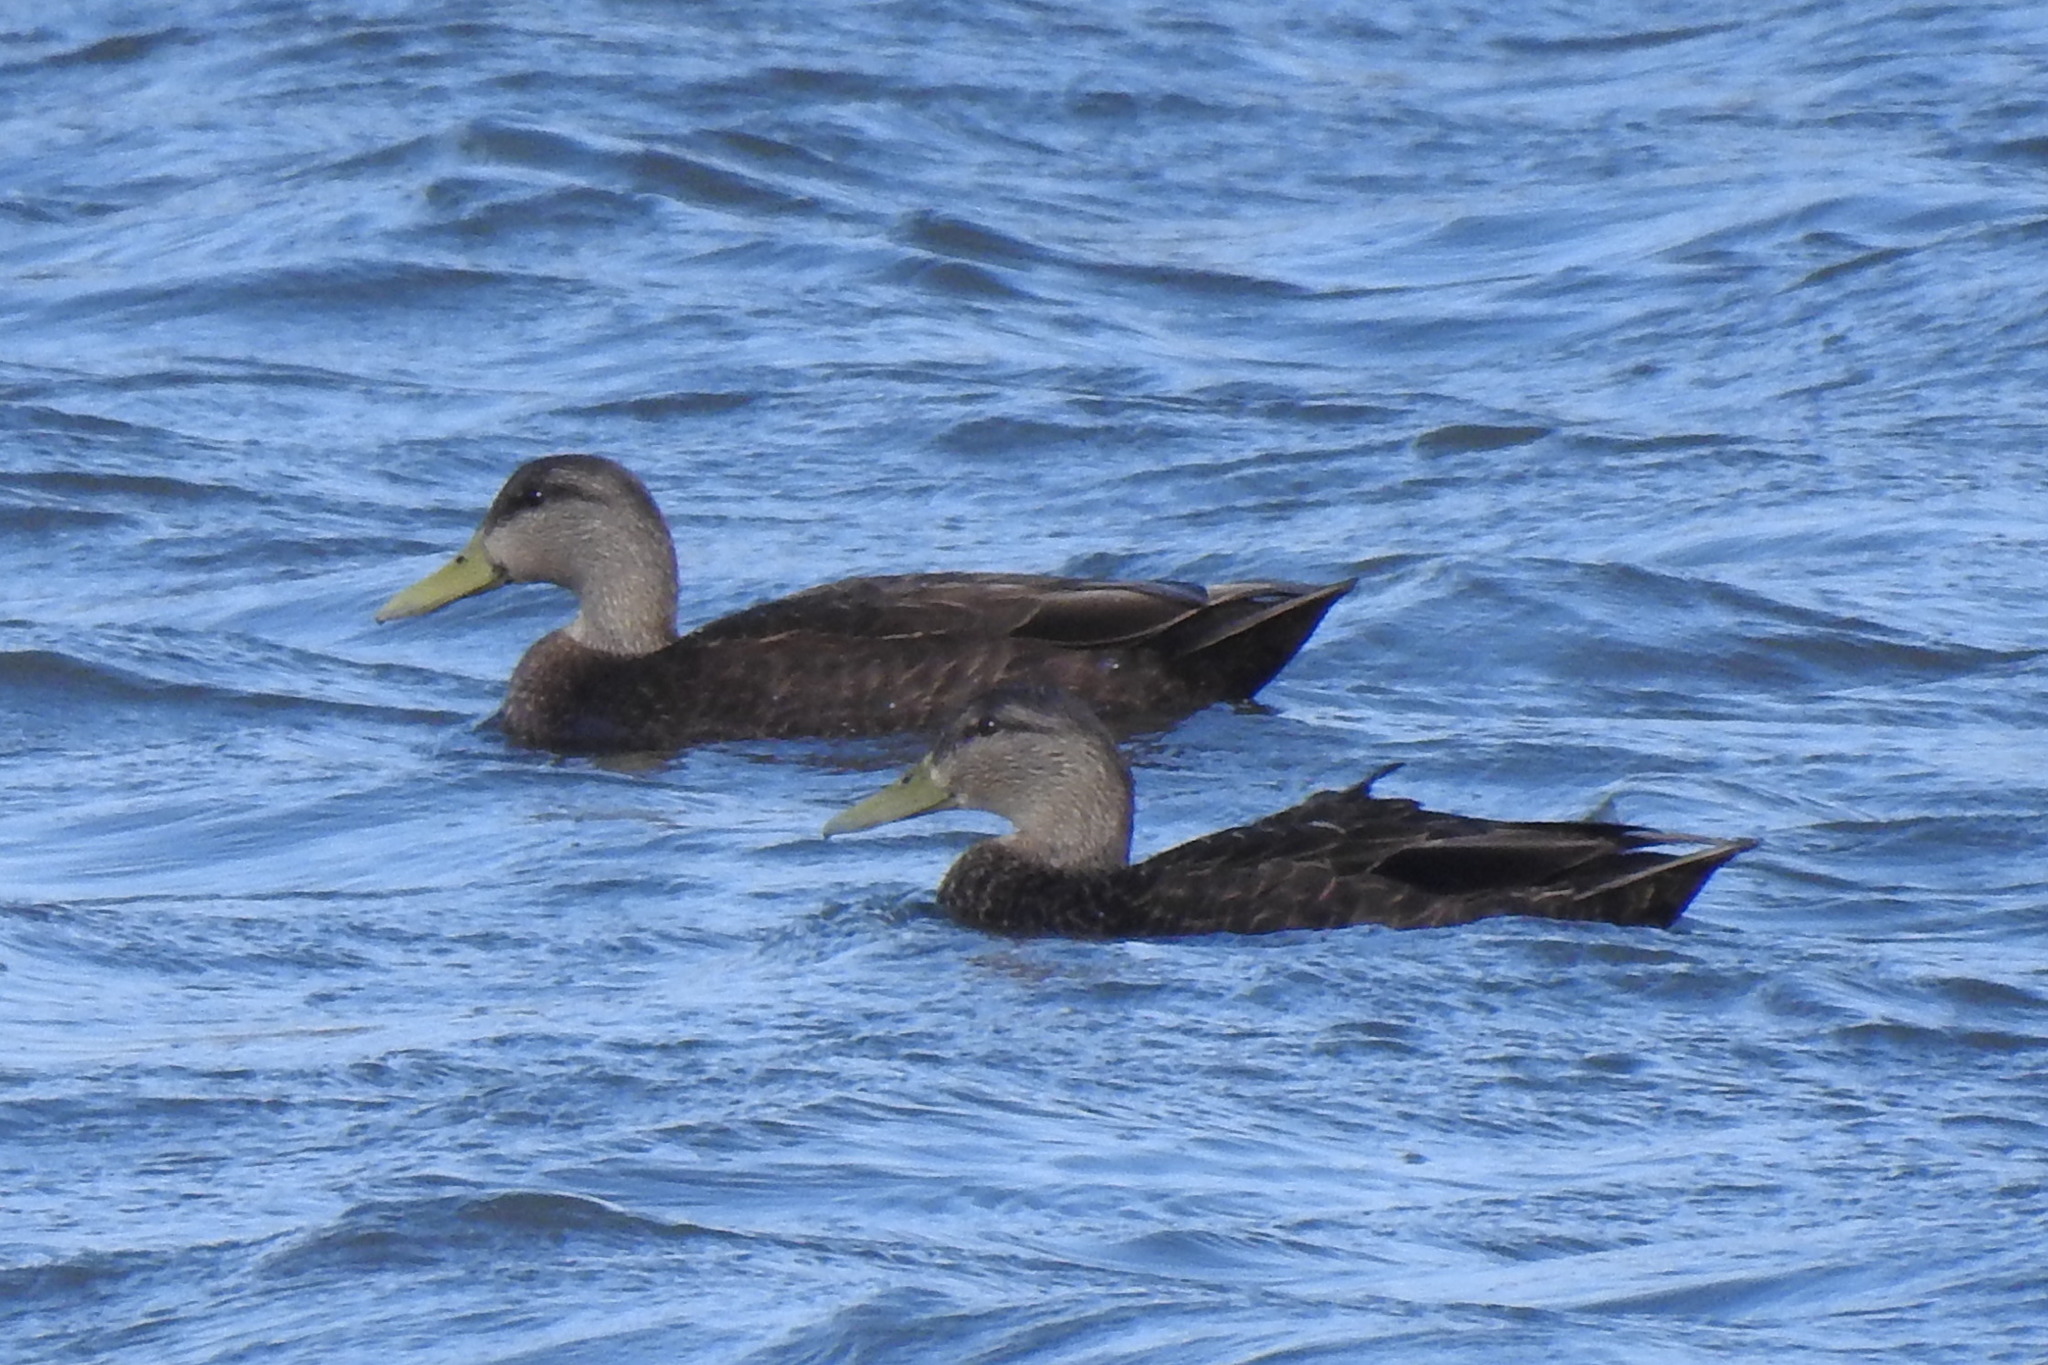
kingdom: Animalia
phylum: Chordata
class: Aves
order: Anseriformes
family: Anatidae
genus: Anas
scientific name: Anas rubripes
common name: American black duck
